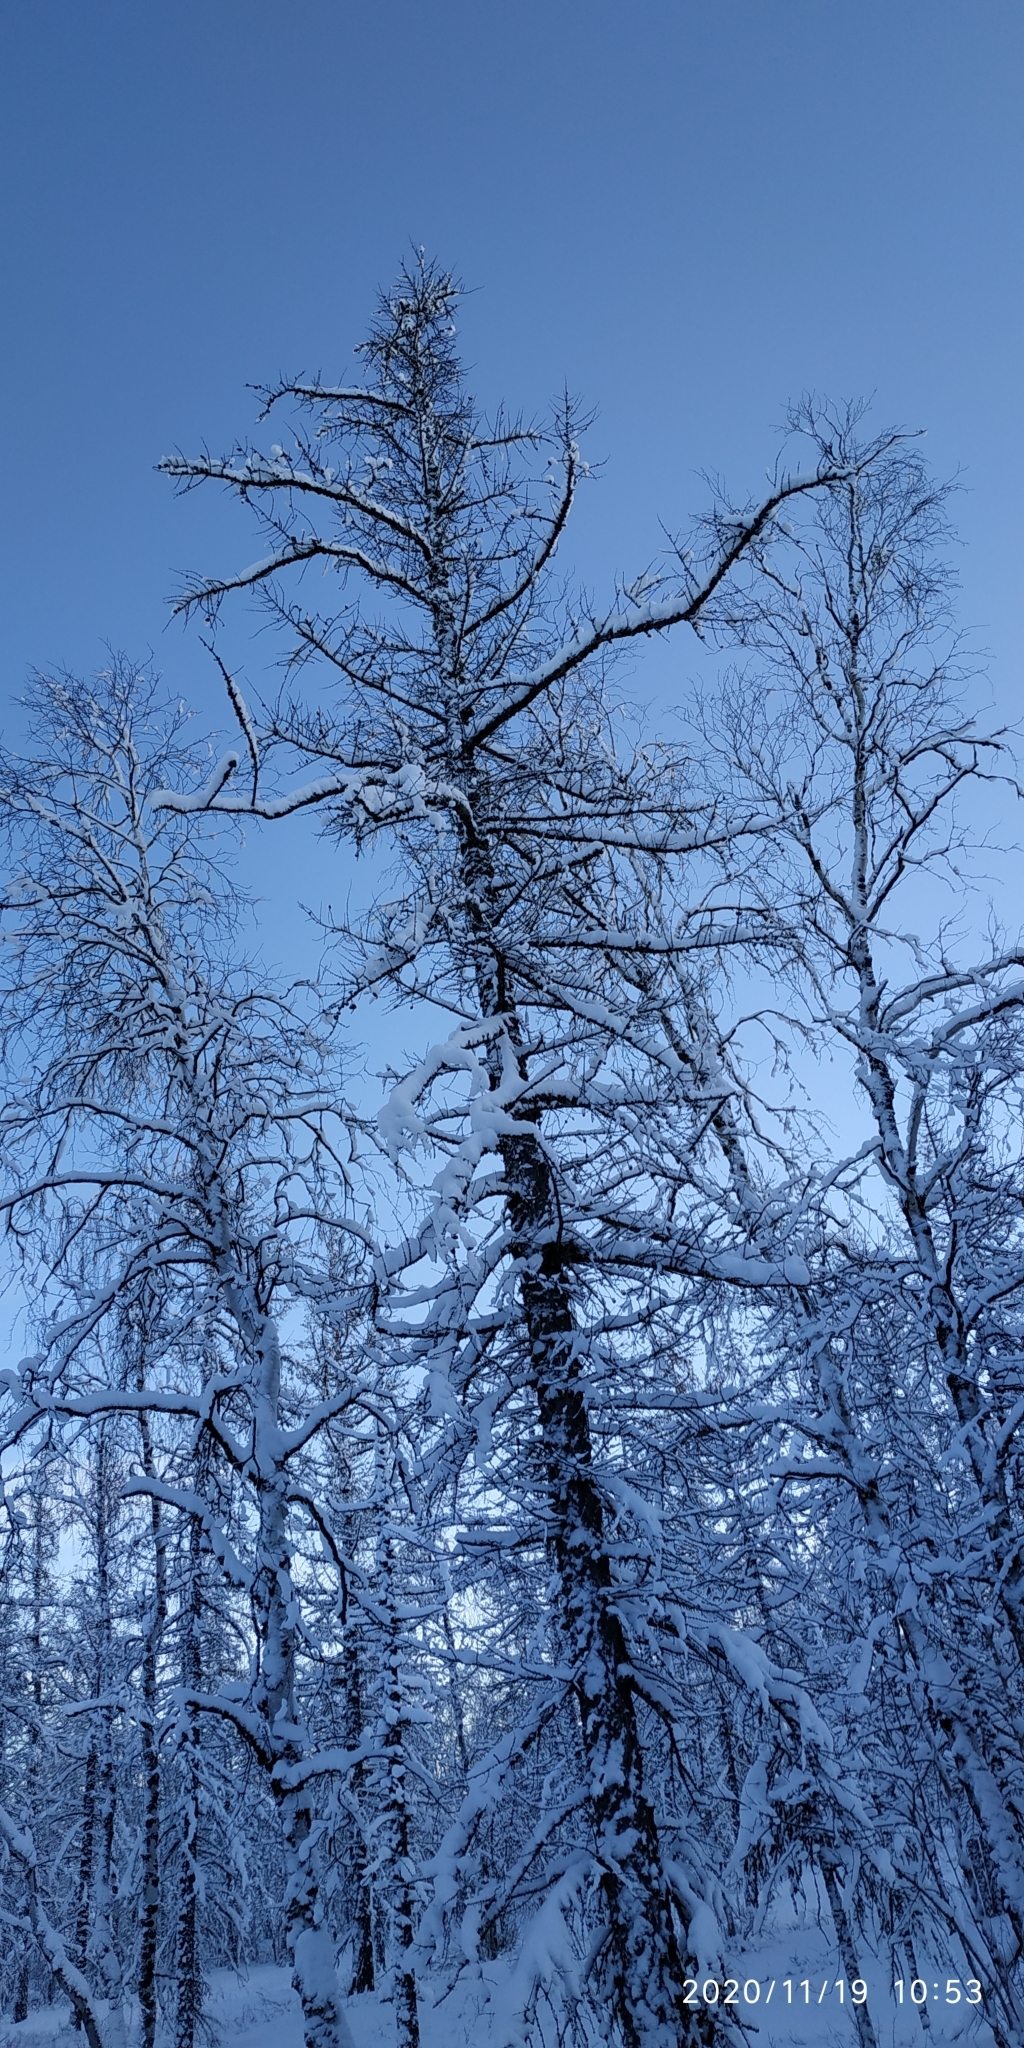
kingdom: Plantae
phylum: Tracheophyta
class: Pinopsida
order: Pinales
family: Pinaceae
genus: Larix
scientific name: Larix sibirica
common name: Siberian larch
